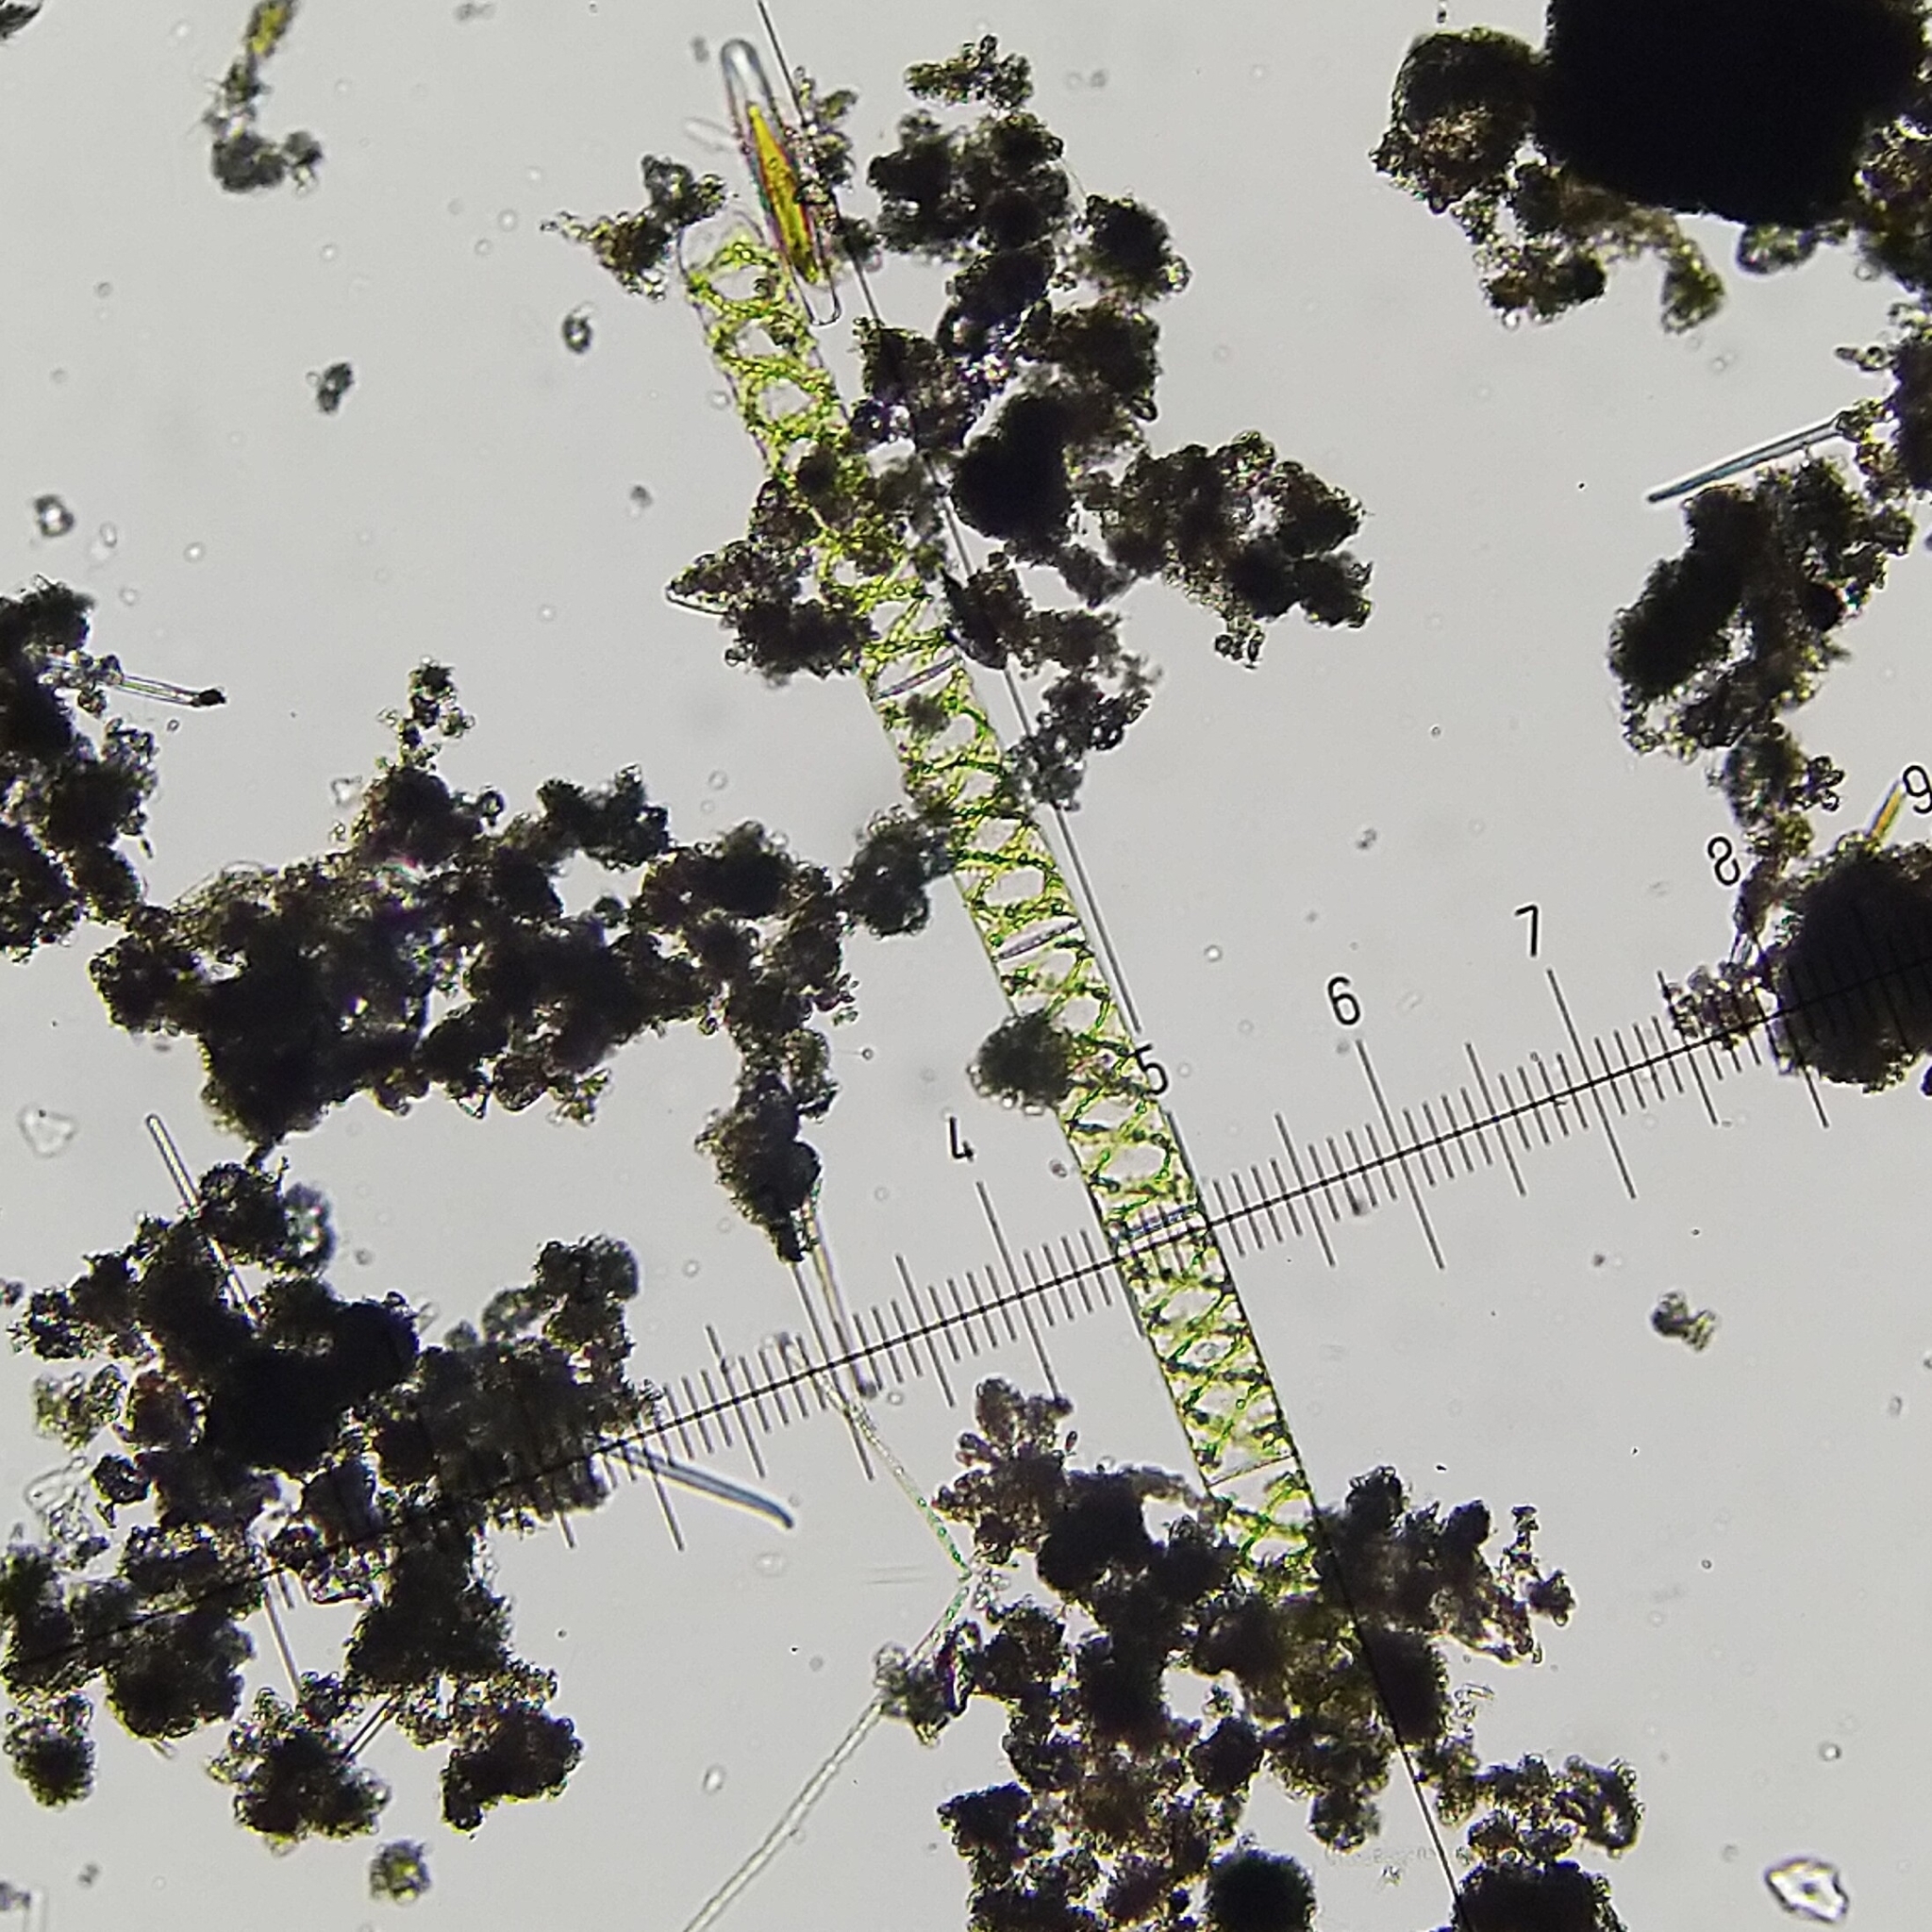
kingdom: Plantae
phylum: Charophyta
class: Zygnematophyceae
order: Zygnematales
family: Zygnemataceae
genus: Spirogyra
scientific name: Spirogyra
